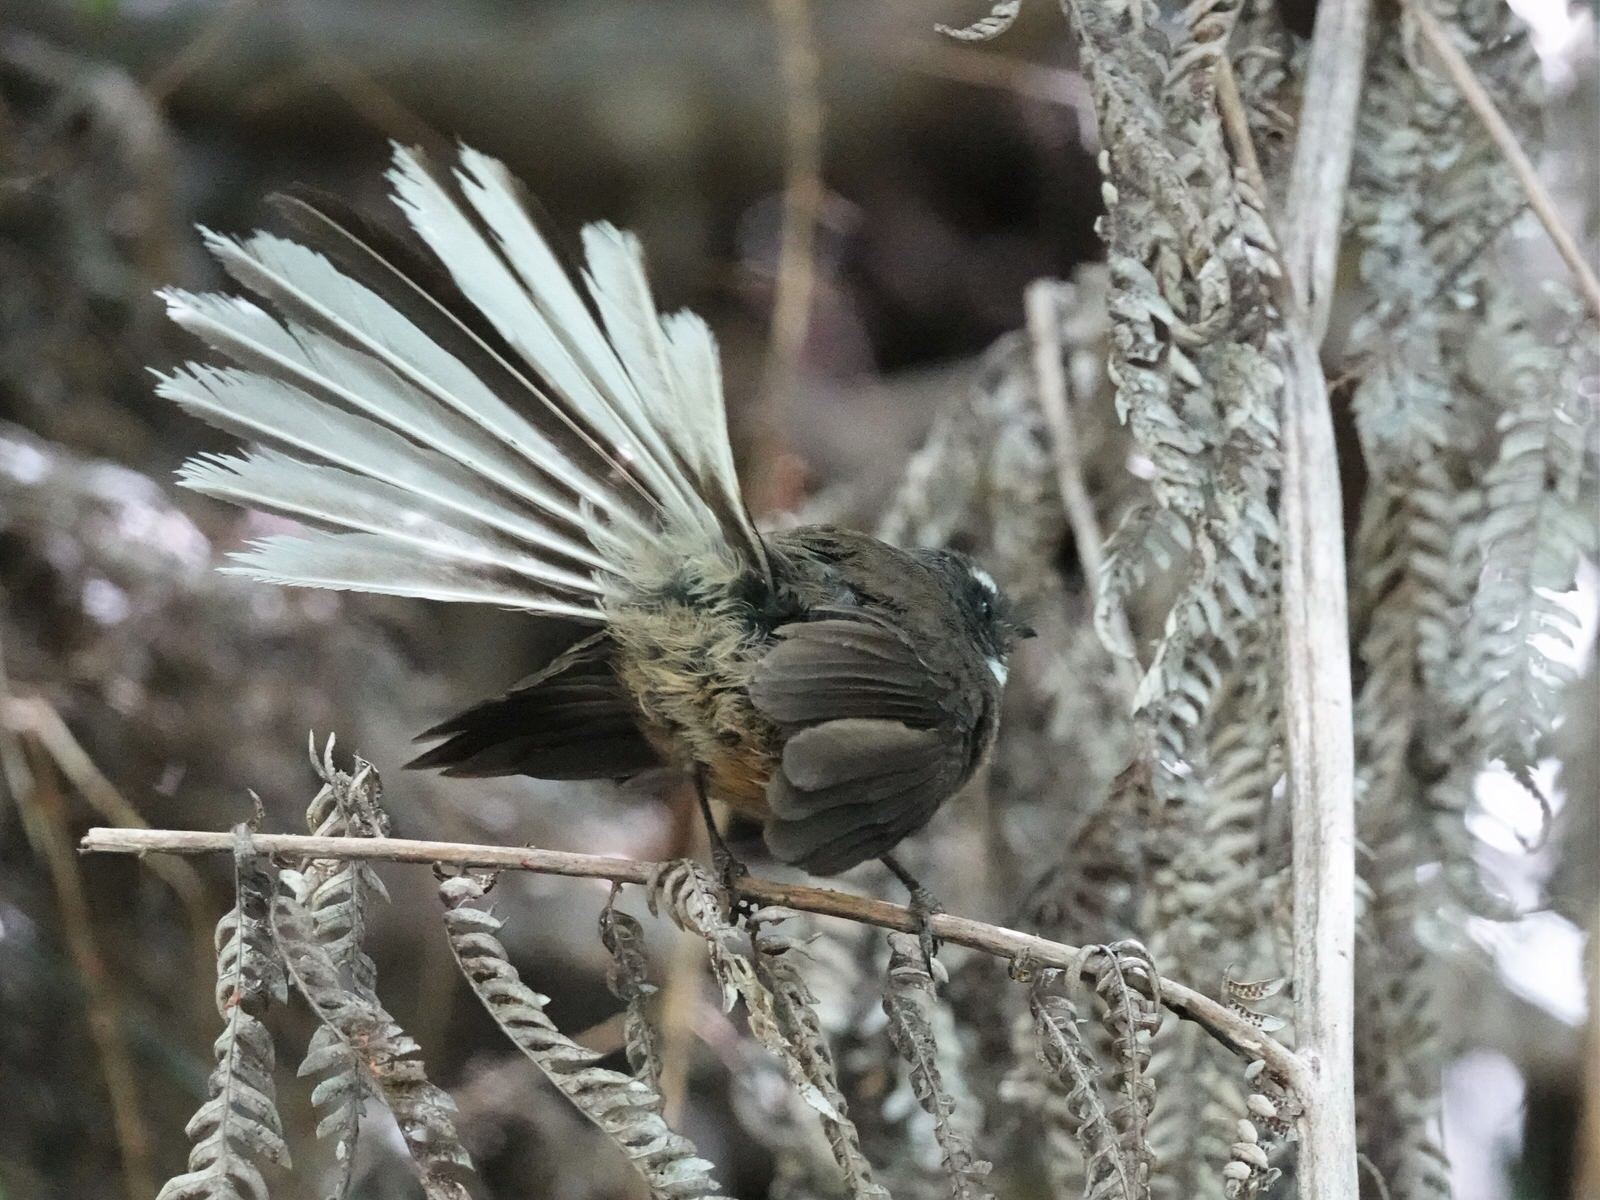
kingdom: Animalia
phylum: Chordata
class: Aves
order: Passeriformes
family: Rhipiduridae
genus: Rhipidura
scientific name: Rhipidura fuliginosa
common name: New zealand fantail
